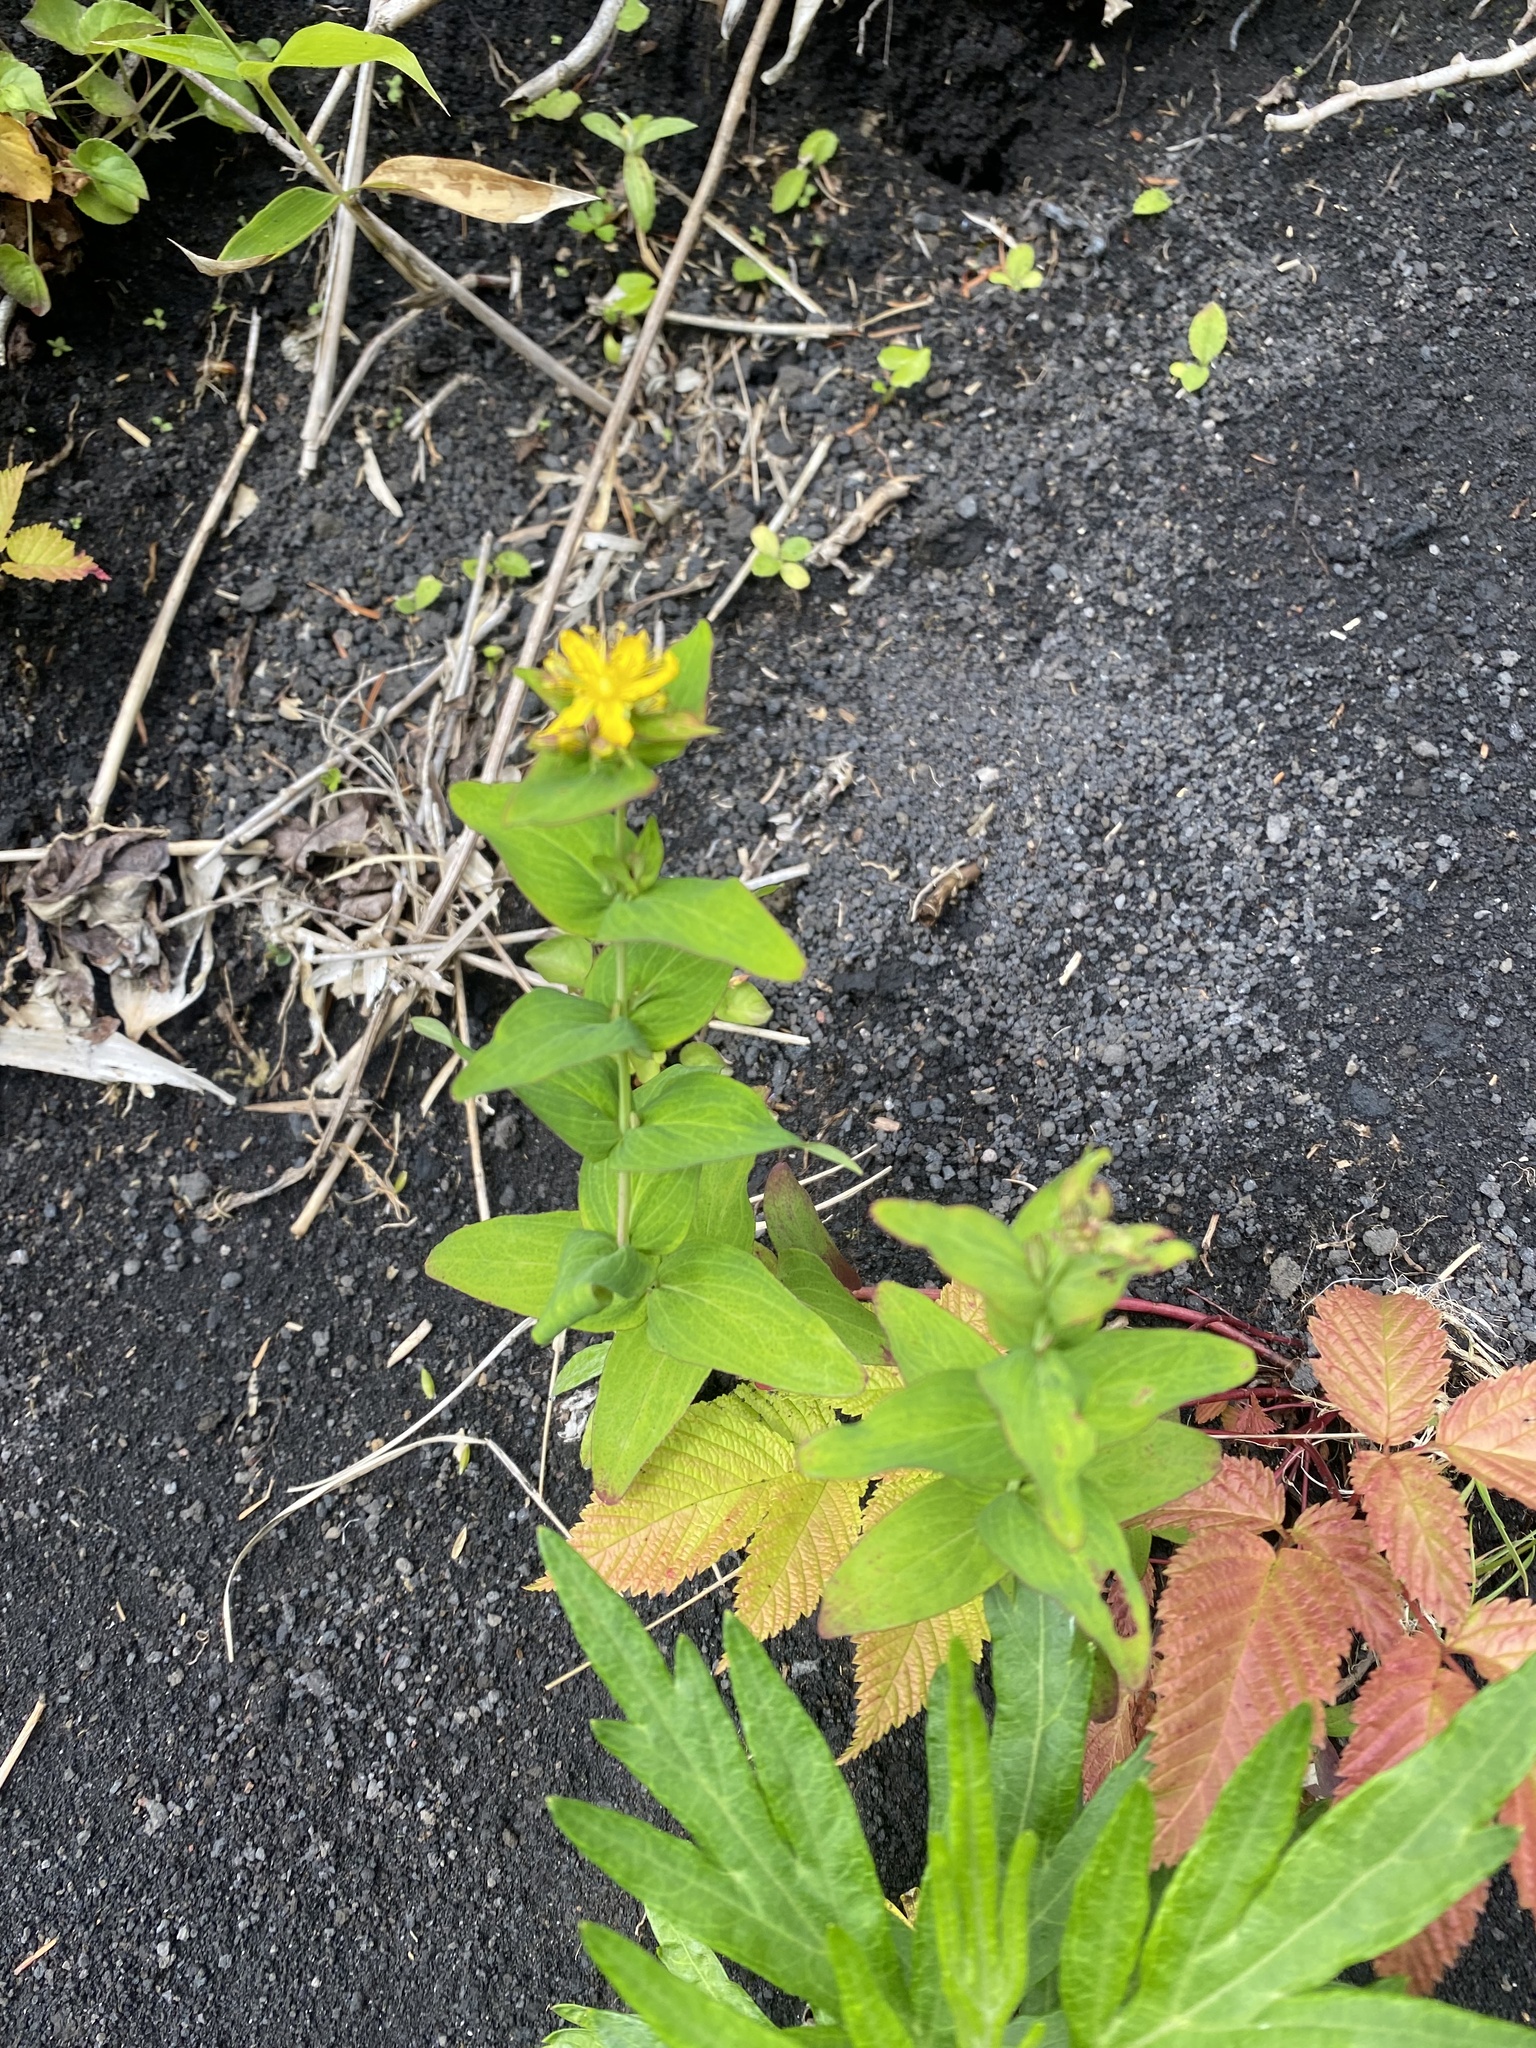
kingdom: Plantae
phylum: Tracheophyta
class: Magnoliopsida
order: Malpighiales
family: Hypericaceae
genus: Hypericum
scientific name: Hypericum kamtschaticum
